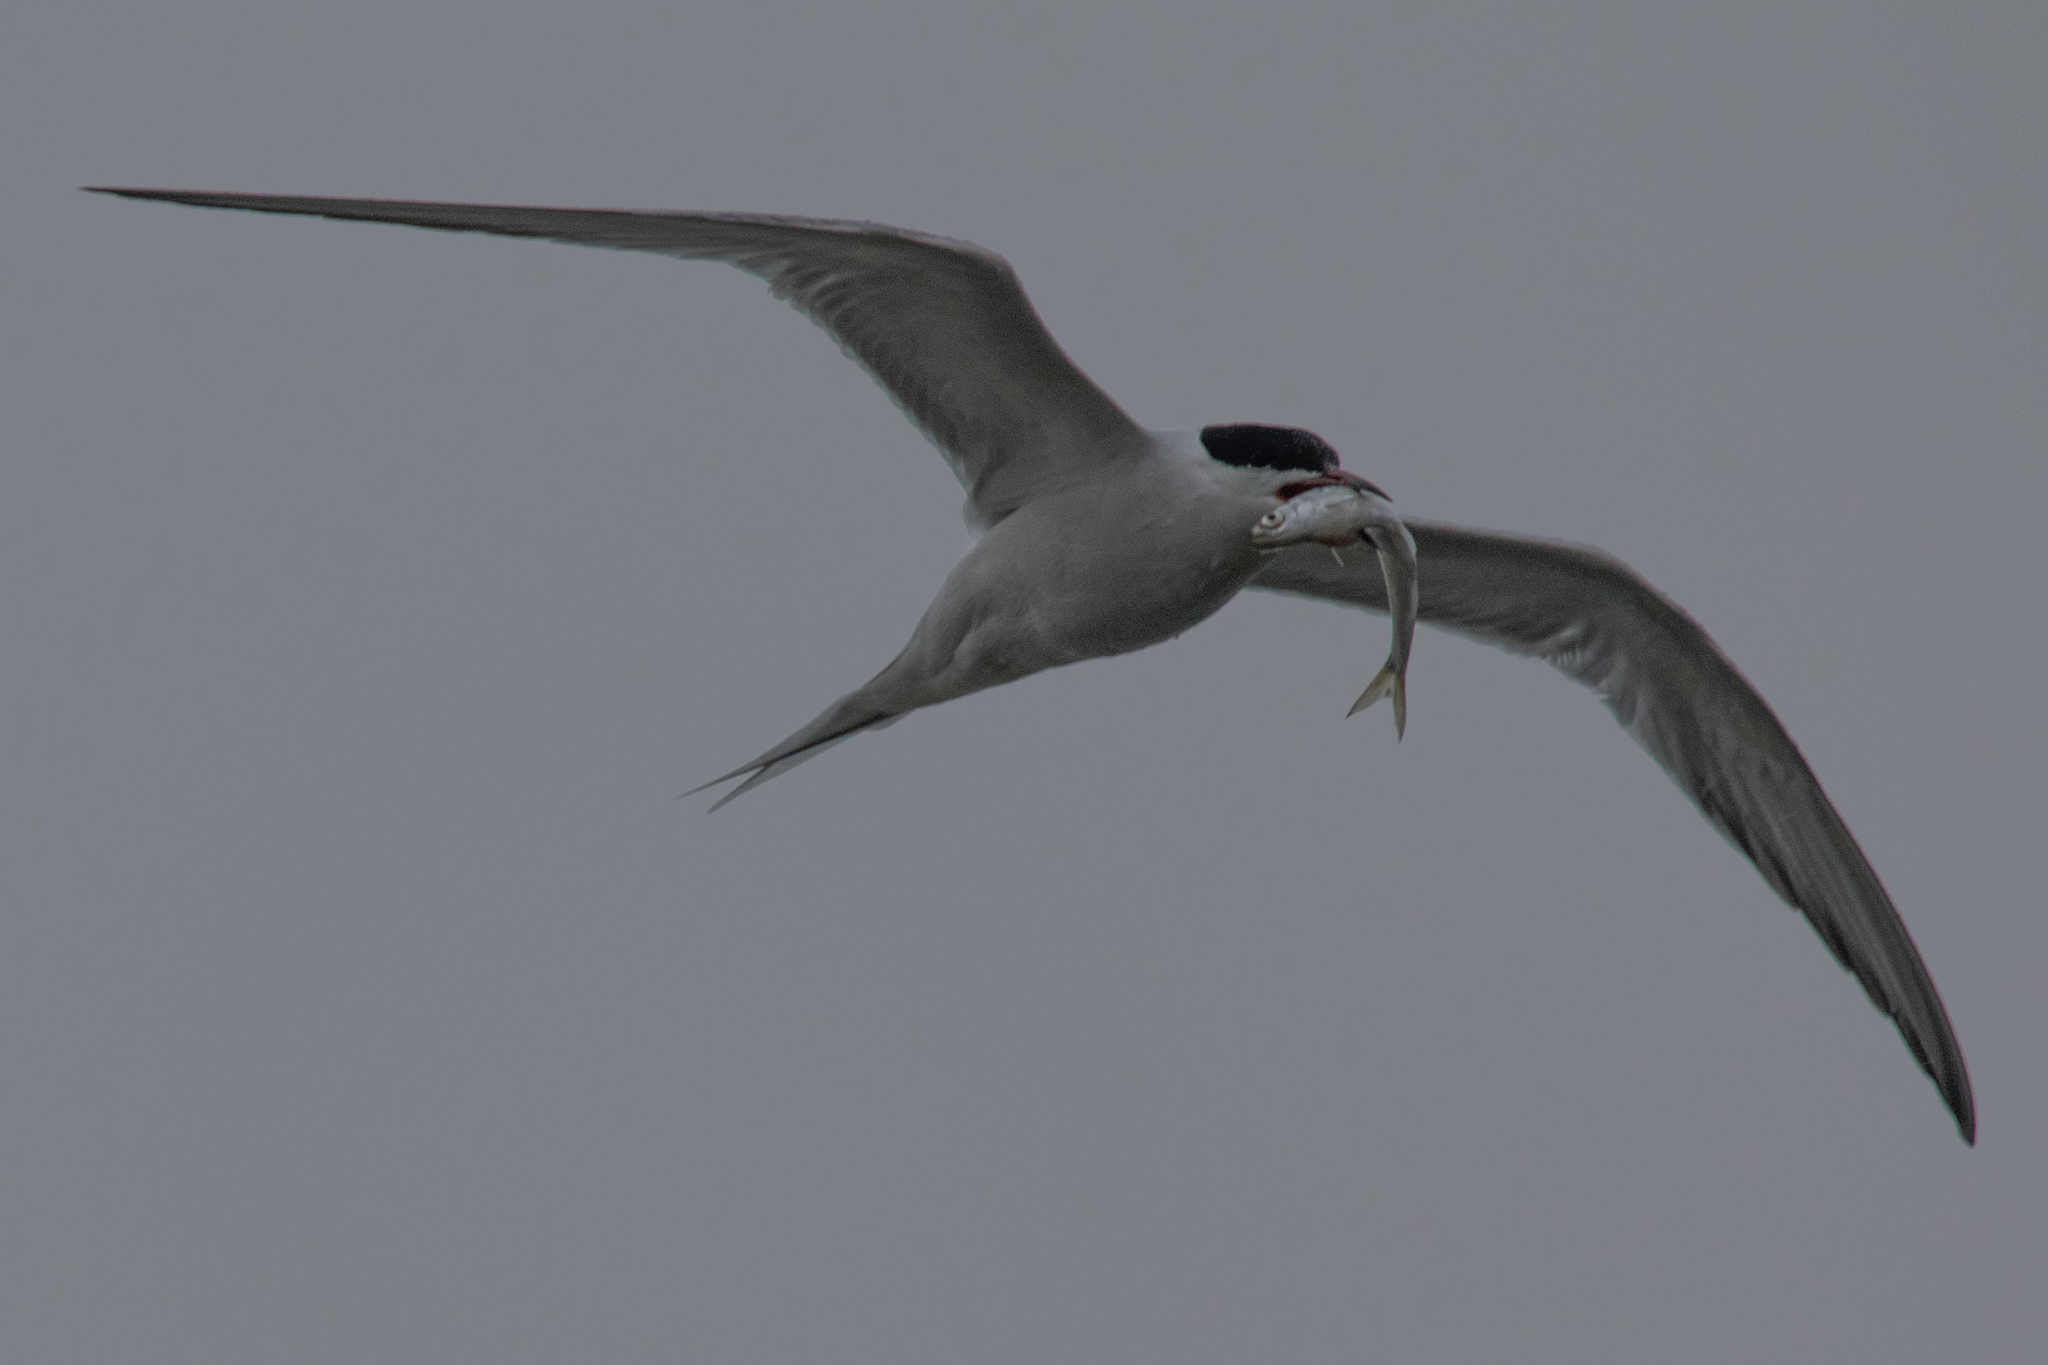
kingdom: Animalia
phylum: Chordata
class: Aves
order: Charadriiformes
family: Laridae
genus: Sterna
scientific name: Sterna hirundo
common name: Common tern
